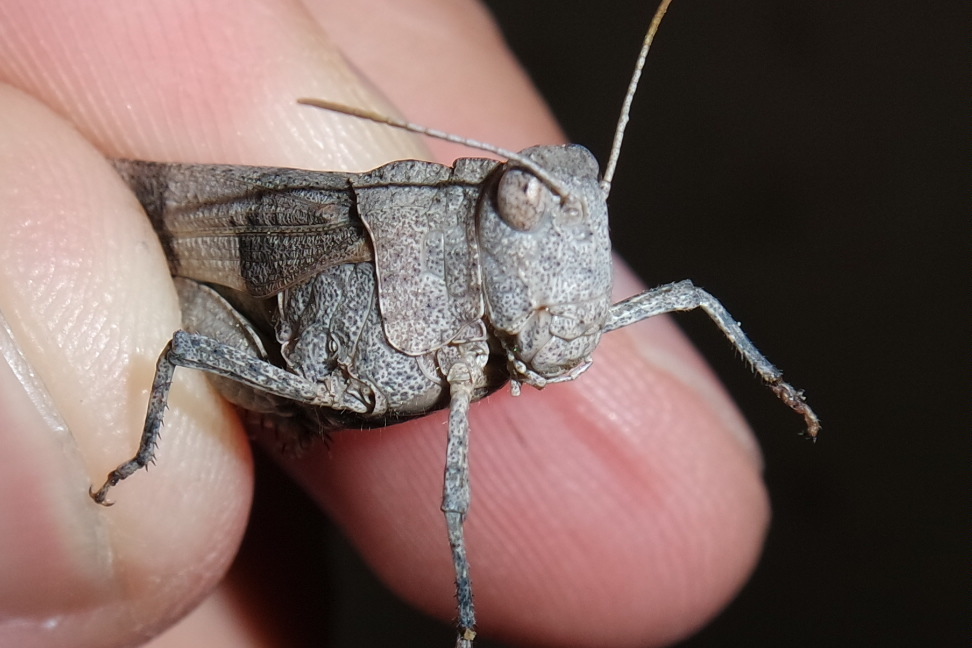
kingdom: Animalia
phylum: Arthropoda
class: Insecta
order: Orthoptera
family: Acrididae
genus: Oedipoda
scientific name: Oedipoda caerulescens
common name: Blue-winged grasshopper
